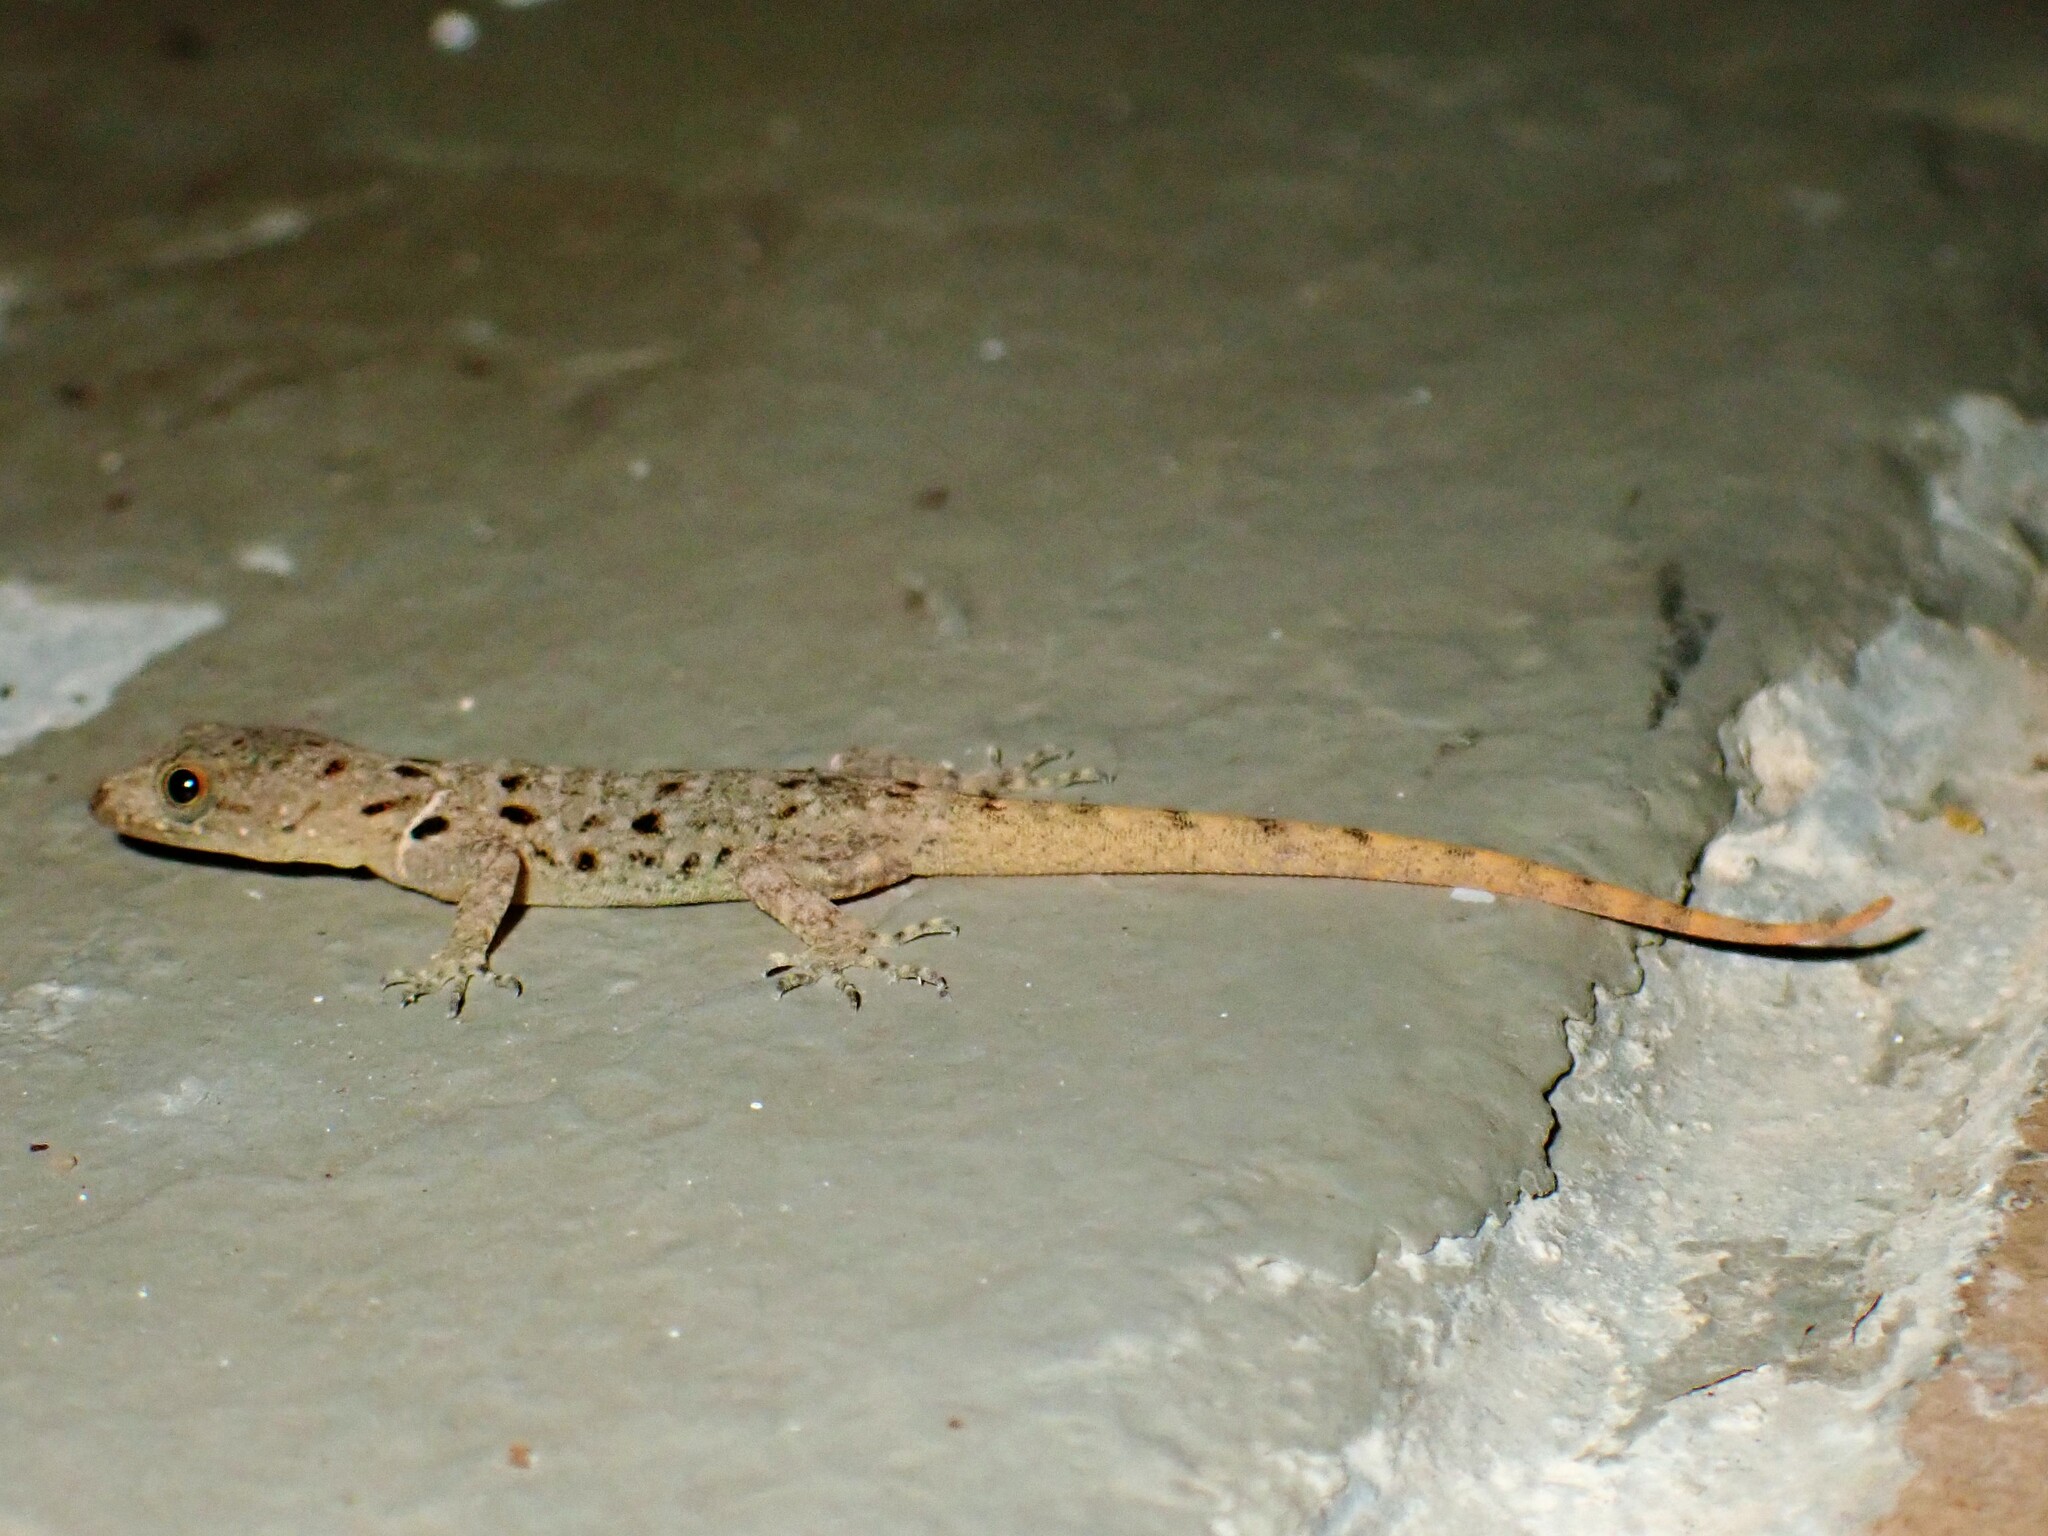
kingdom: Animalia
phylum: Chordata
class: Squamata
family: Sphaerodactylidae
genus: Gonatodes
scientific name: Gonatodes albogularis
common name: Yellow-headed gecko
